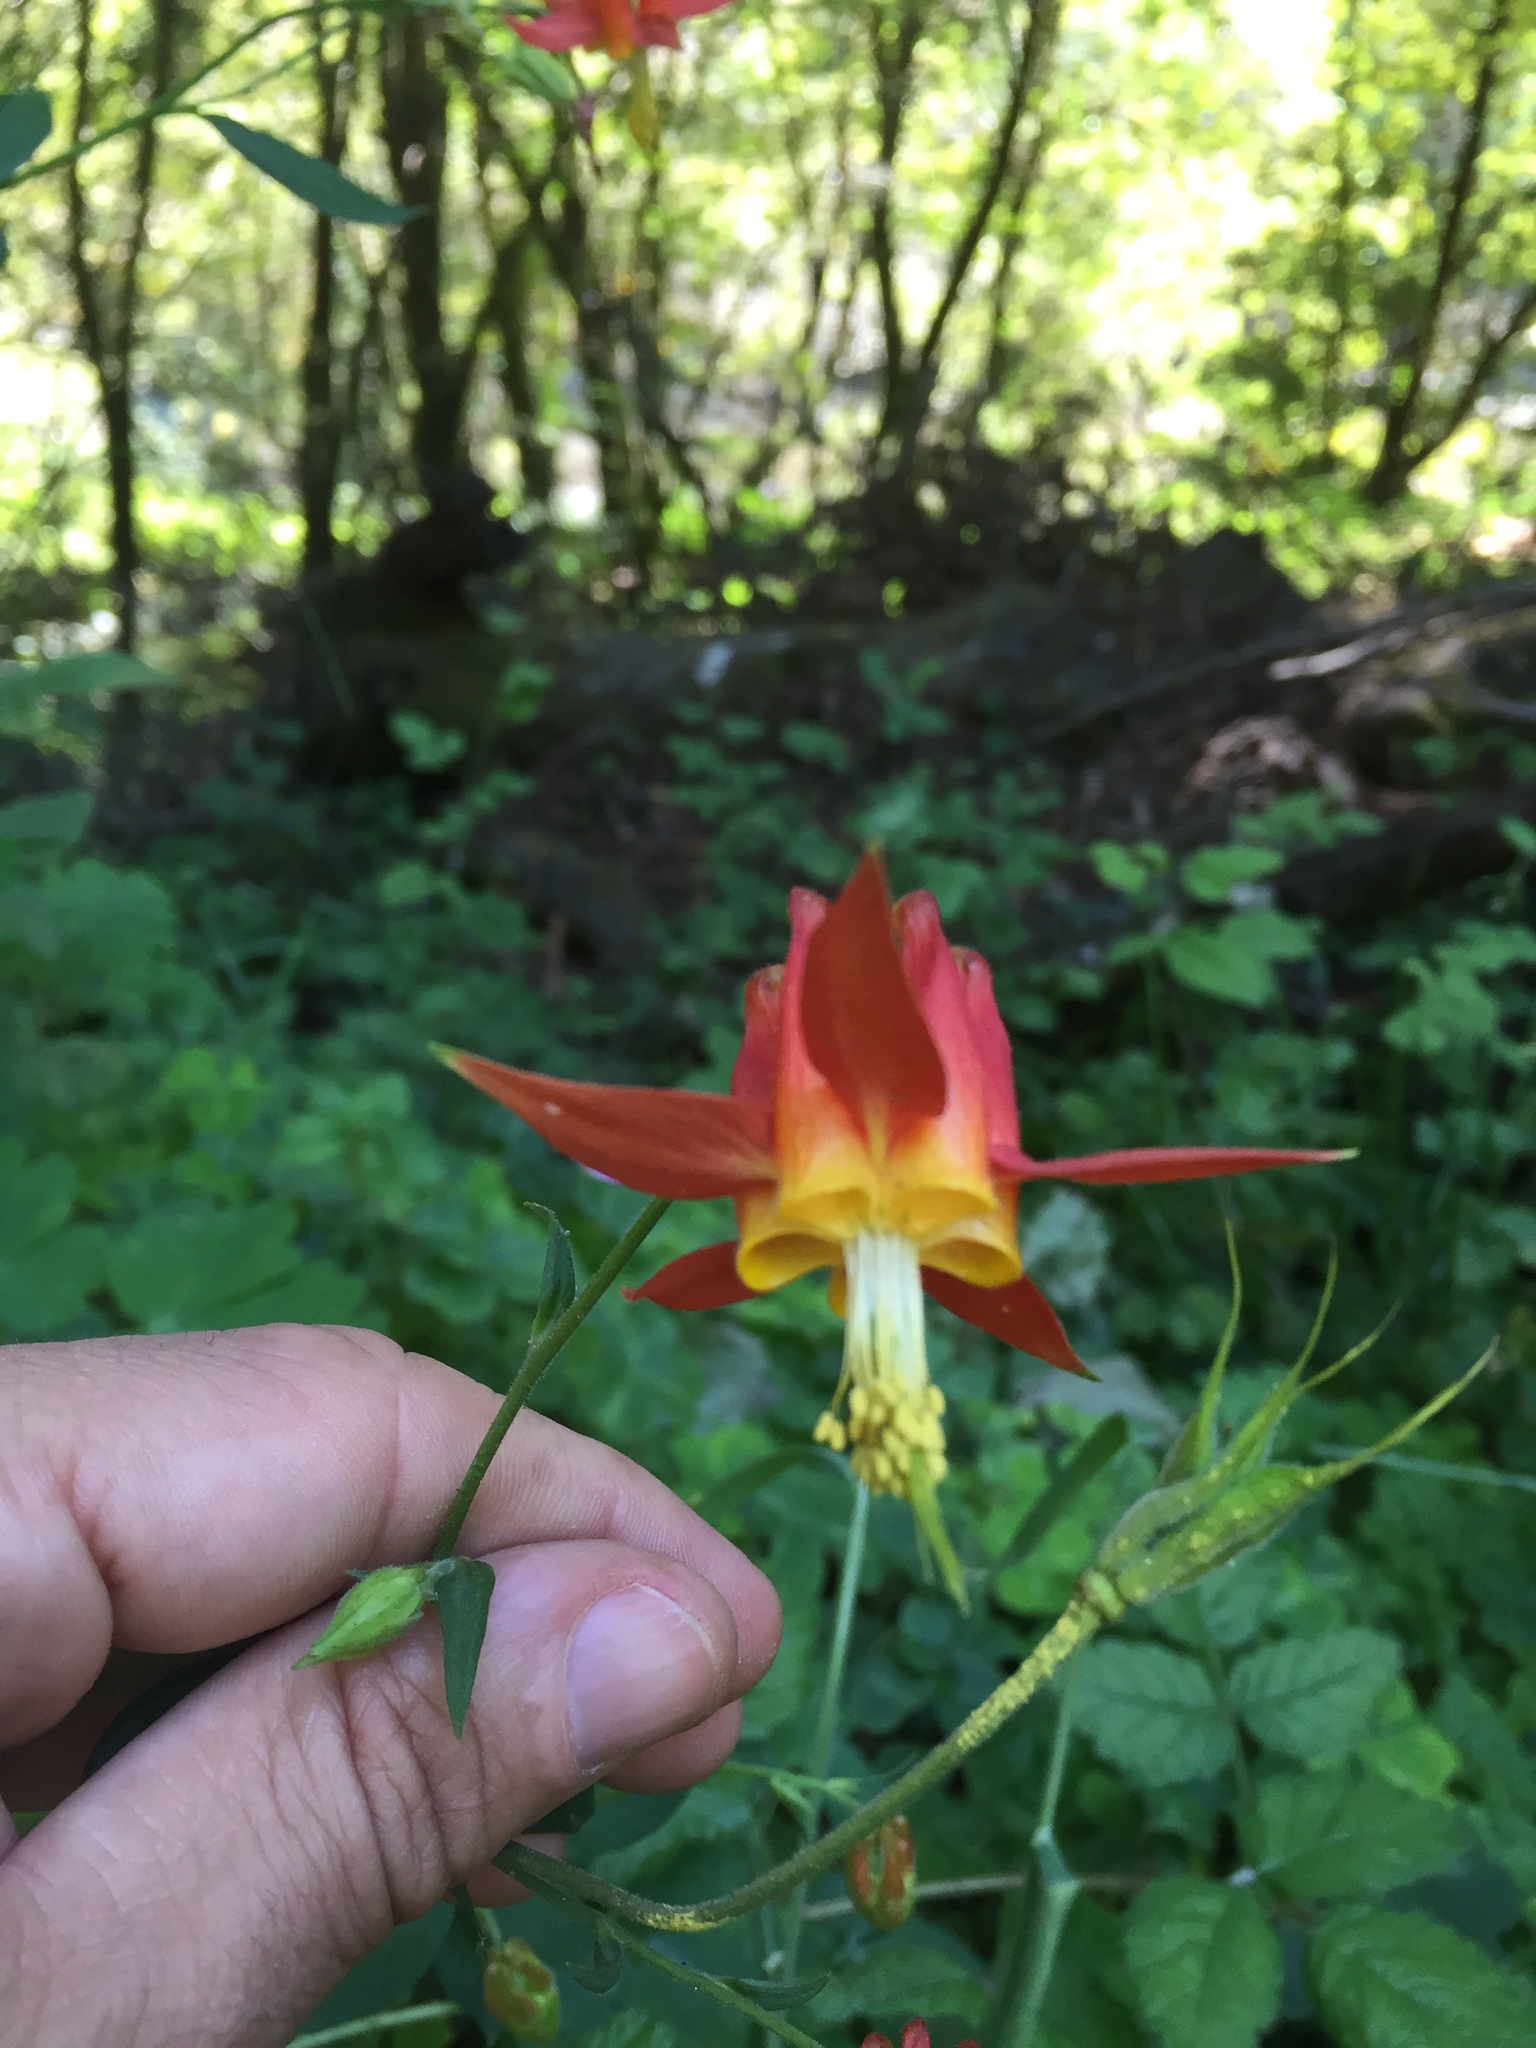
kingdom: Plantae
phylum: Tracheophyta
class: Magnoliopsida
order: Ranunculales
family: Ranunculaceae
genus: Aquilegia
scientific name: Aquilegia formosa
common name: Sitka columbine
